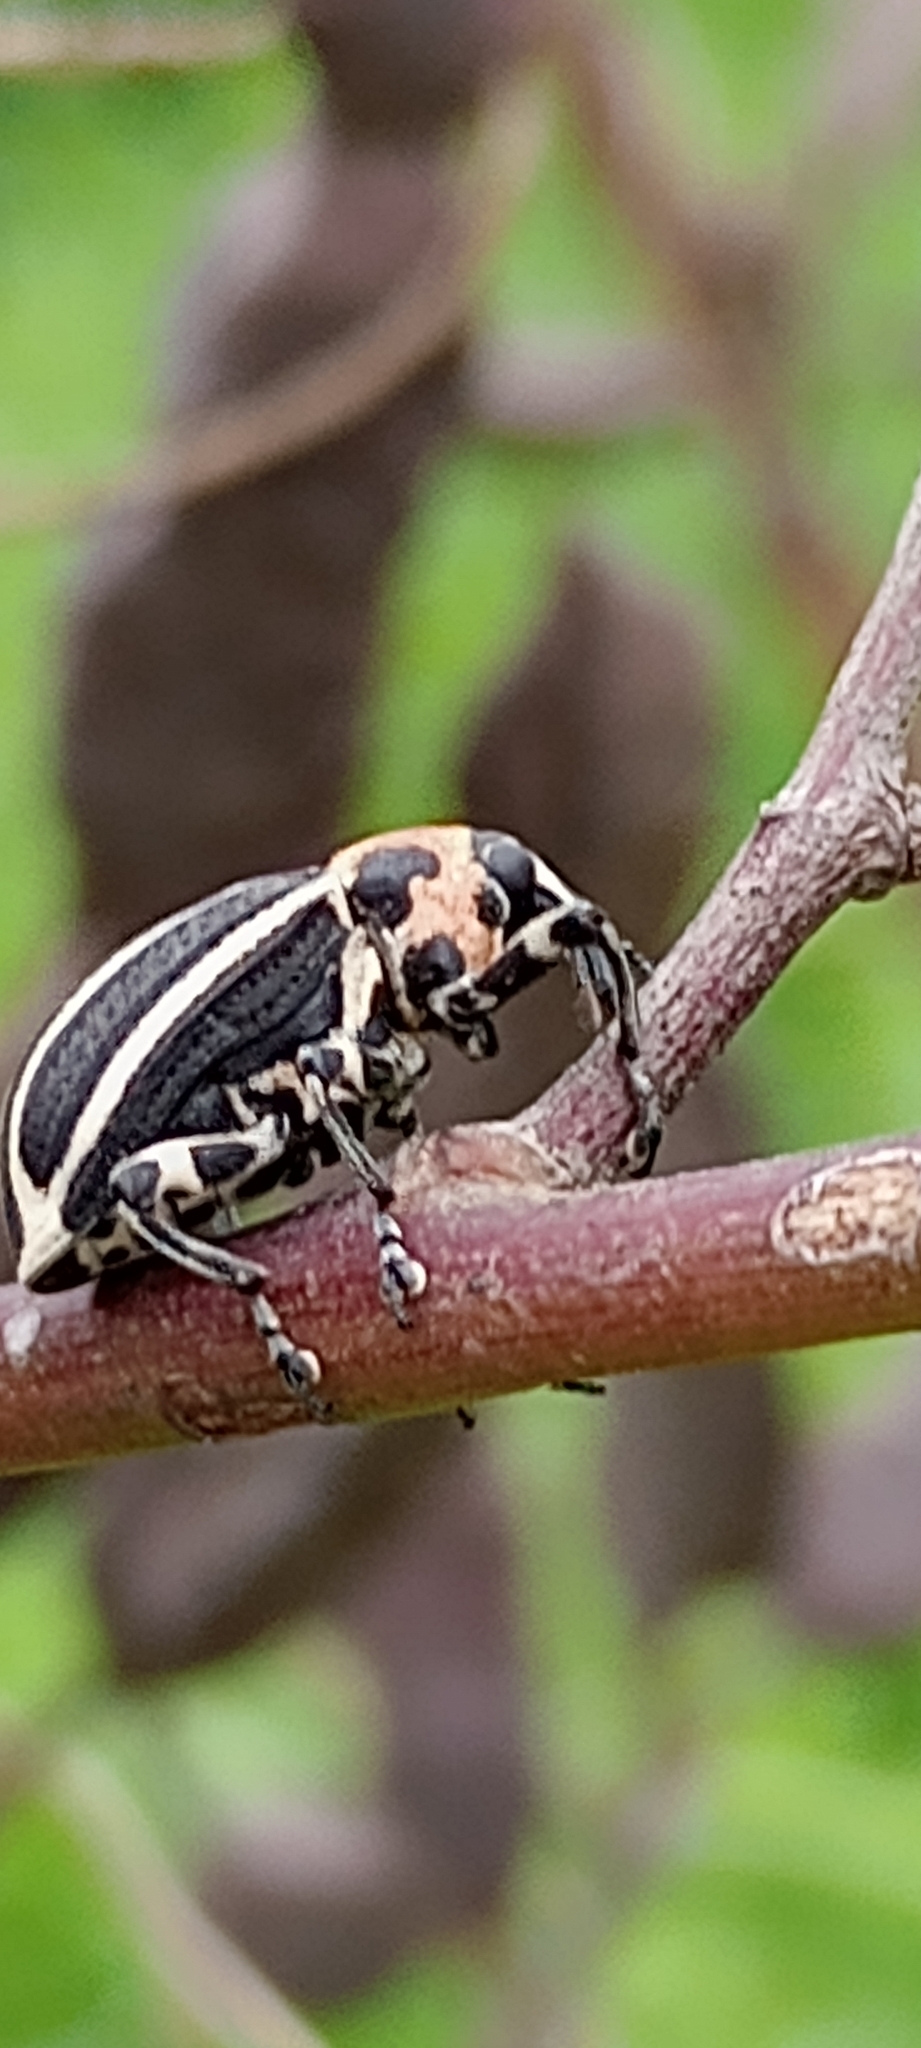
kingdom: Animalia
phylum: Arthropoda
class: Insecta
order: Coleoptera
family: Curculionidae
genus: Neodiplogrammus
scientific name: Neodiplogrammus
